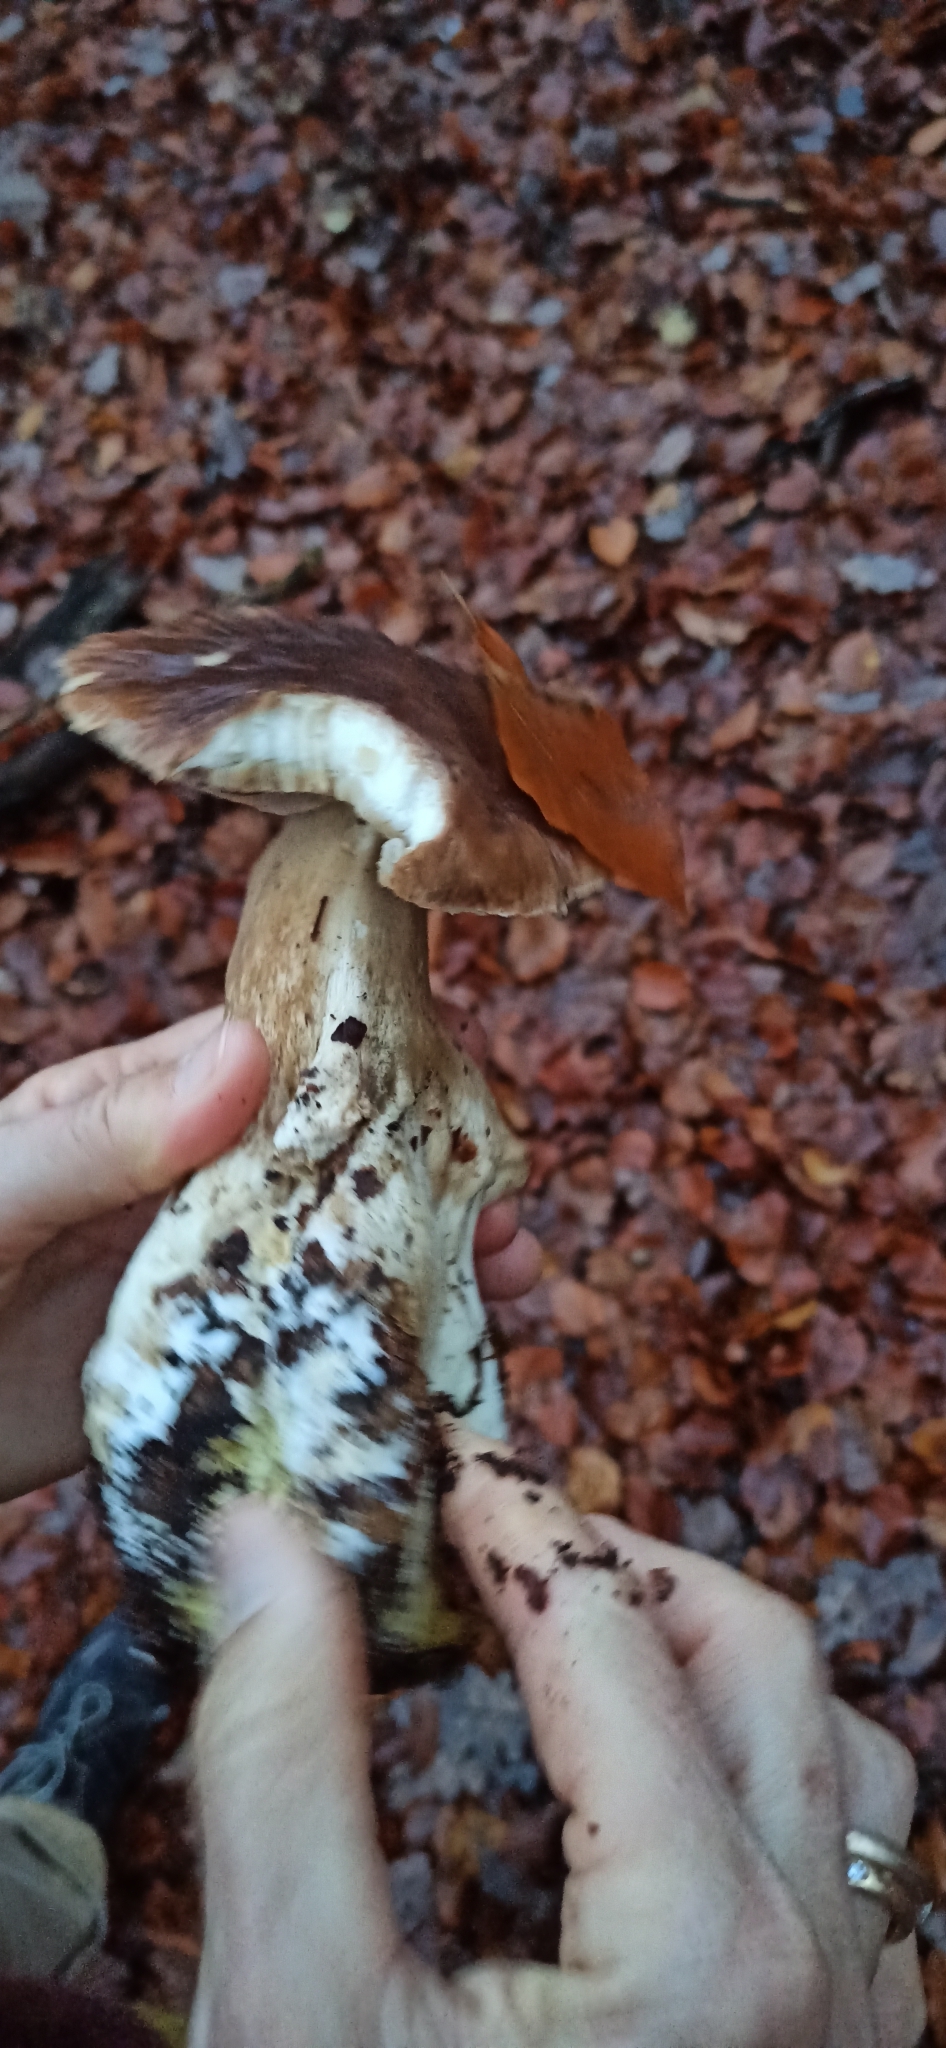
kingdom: Fungi
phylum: Basidiomycota
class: Agaricomycetes
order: Boletales
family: Boletaceae
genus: Boletus
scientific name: Boletus edulis
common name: Cep
